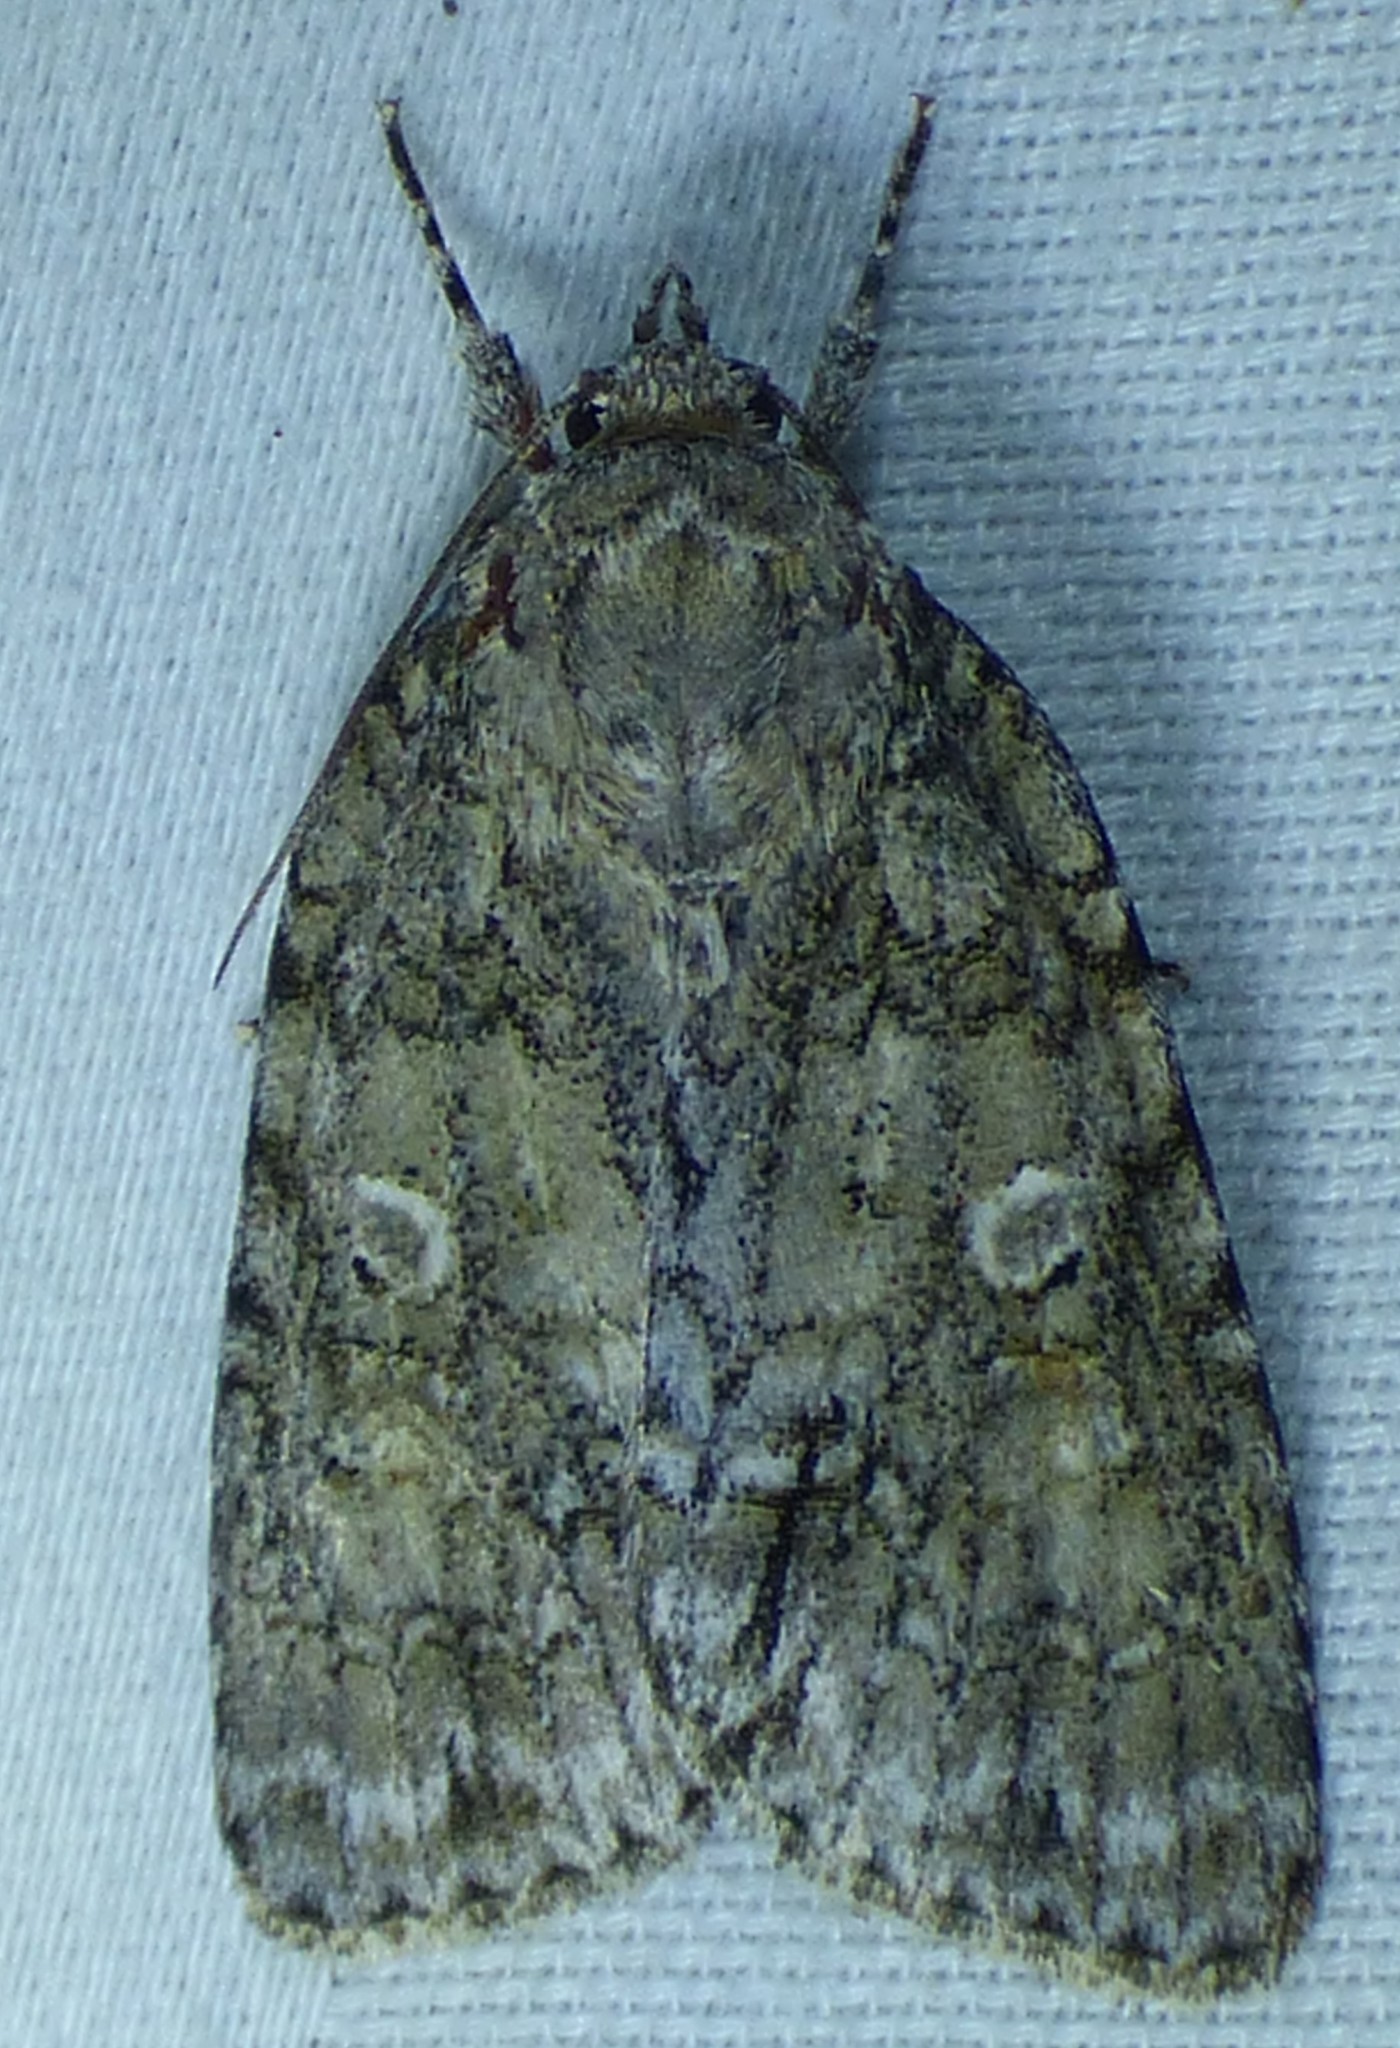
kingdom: Animalia
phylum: Arthropoda
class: Insecta
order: Lepidoptera
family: Noctuidae
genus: Acronicta
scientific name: Acronicta retardata
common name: Maple dagger
